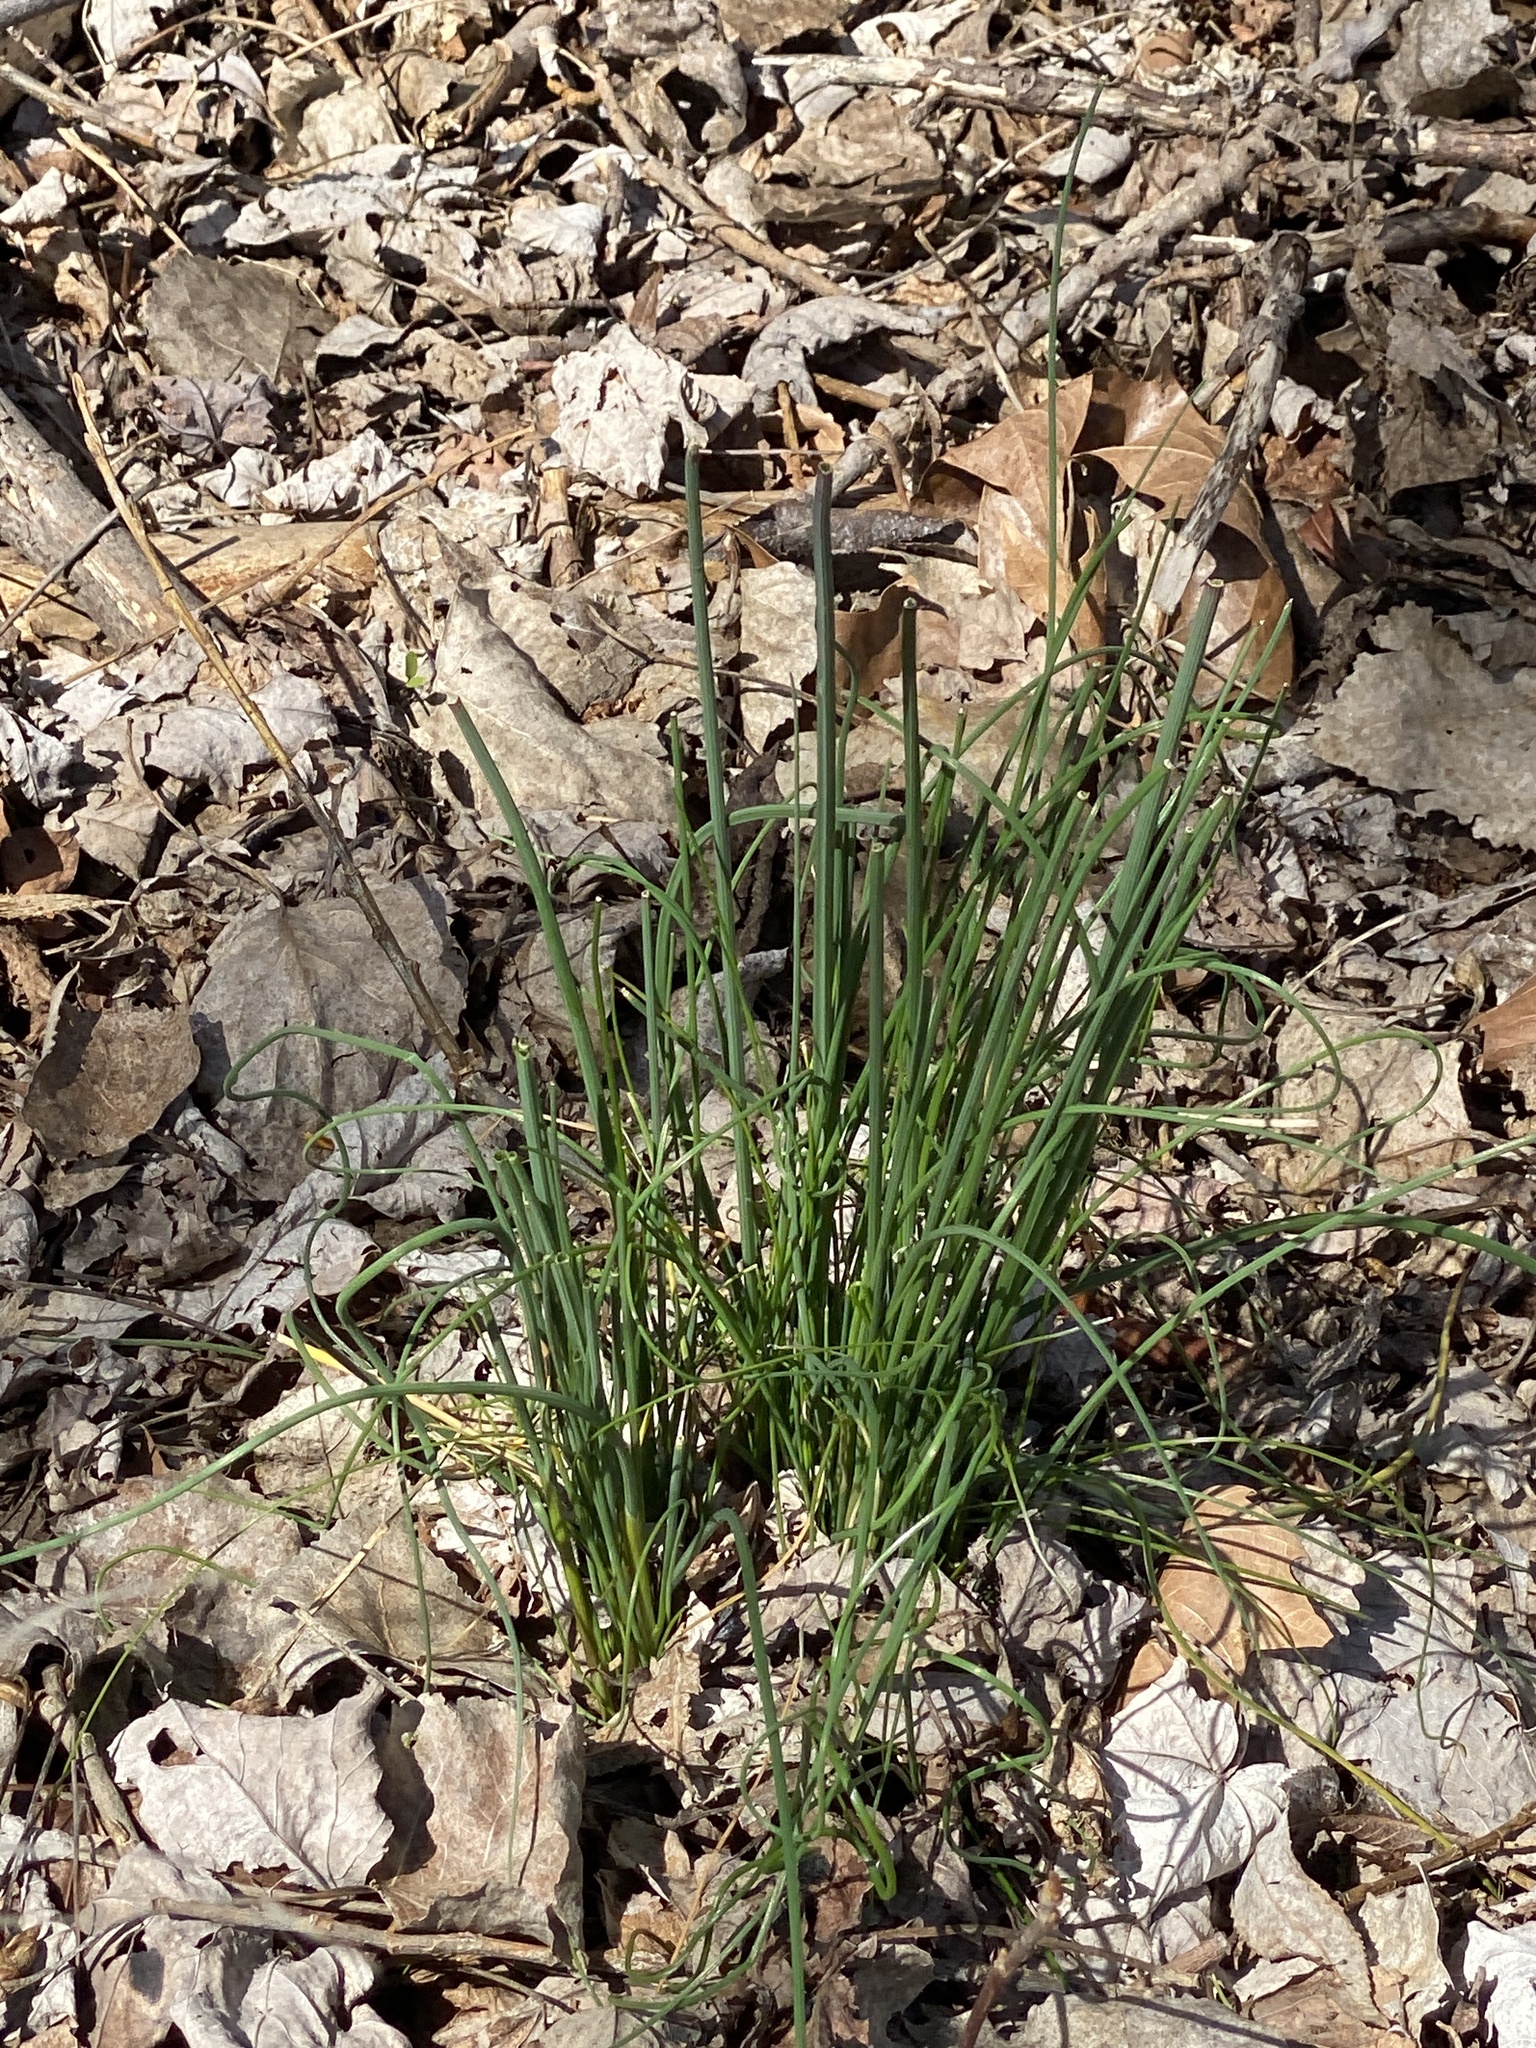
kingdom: Plantae
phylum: Tracheophyta
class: Liliopsida
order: Asparagales
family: Amaryllidaceae
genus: Allium
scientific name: Allium vineale
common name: Crow garlic
